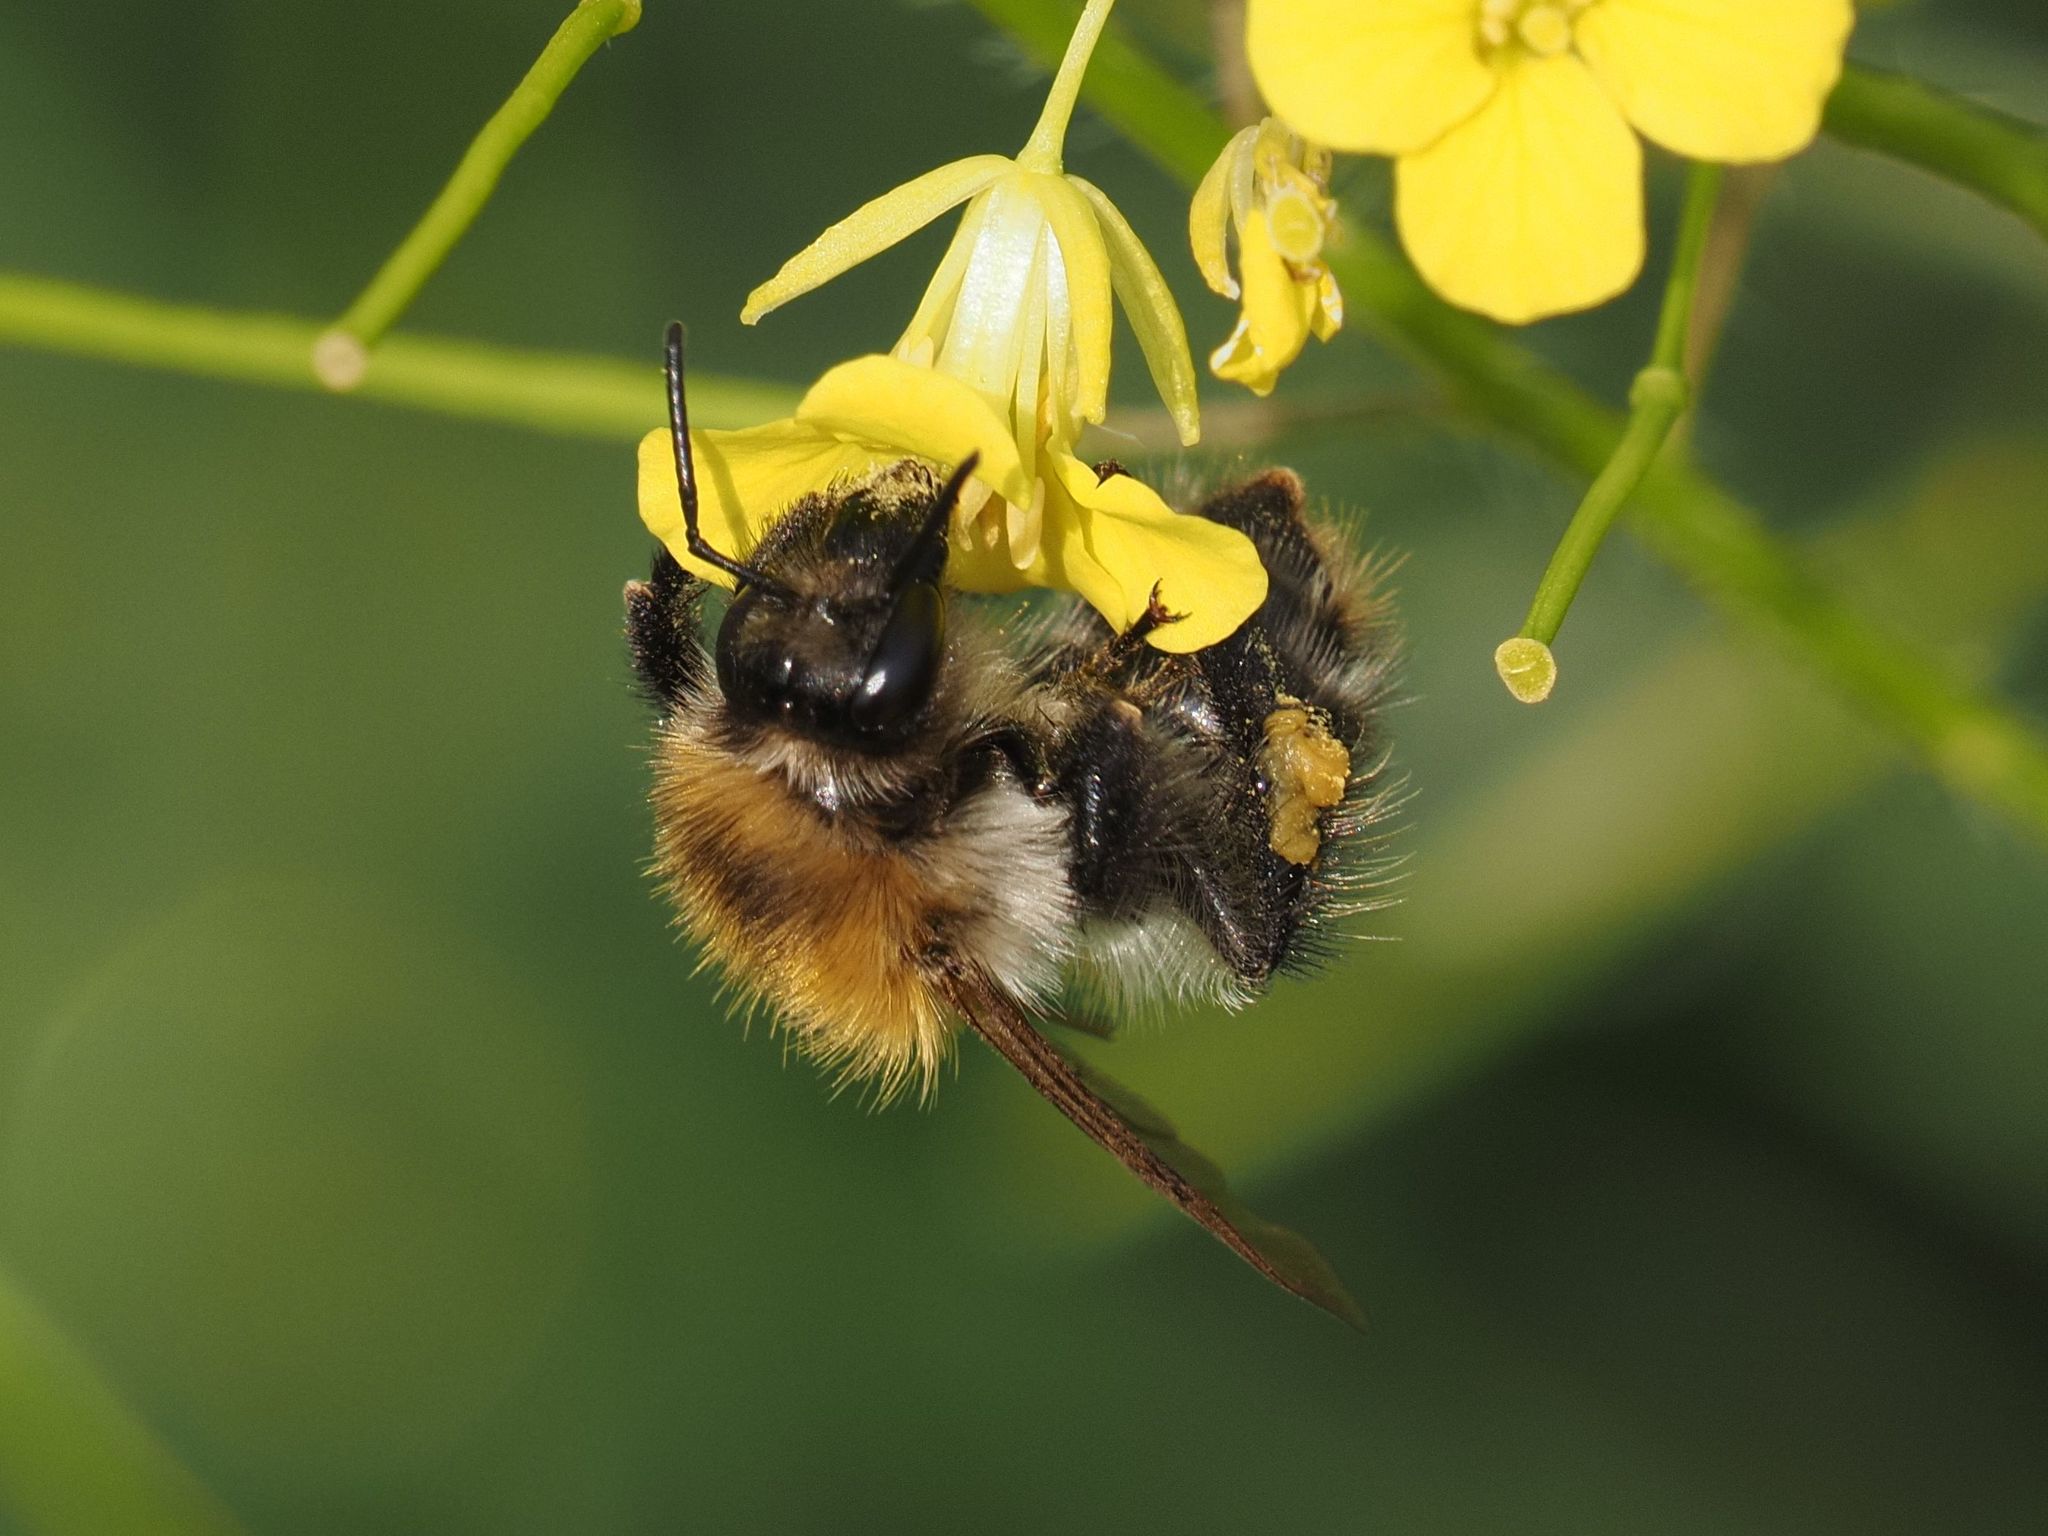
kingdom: Animalia
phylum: Arthropoda
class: Insecta
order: Hymenoptera
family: Apidae
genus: Bombus
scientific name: Bombus pascuorum
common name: Common carder bee
